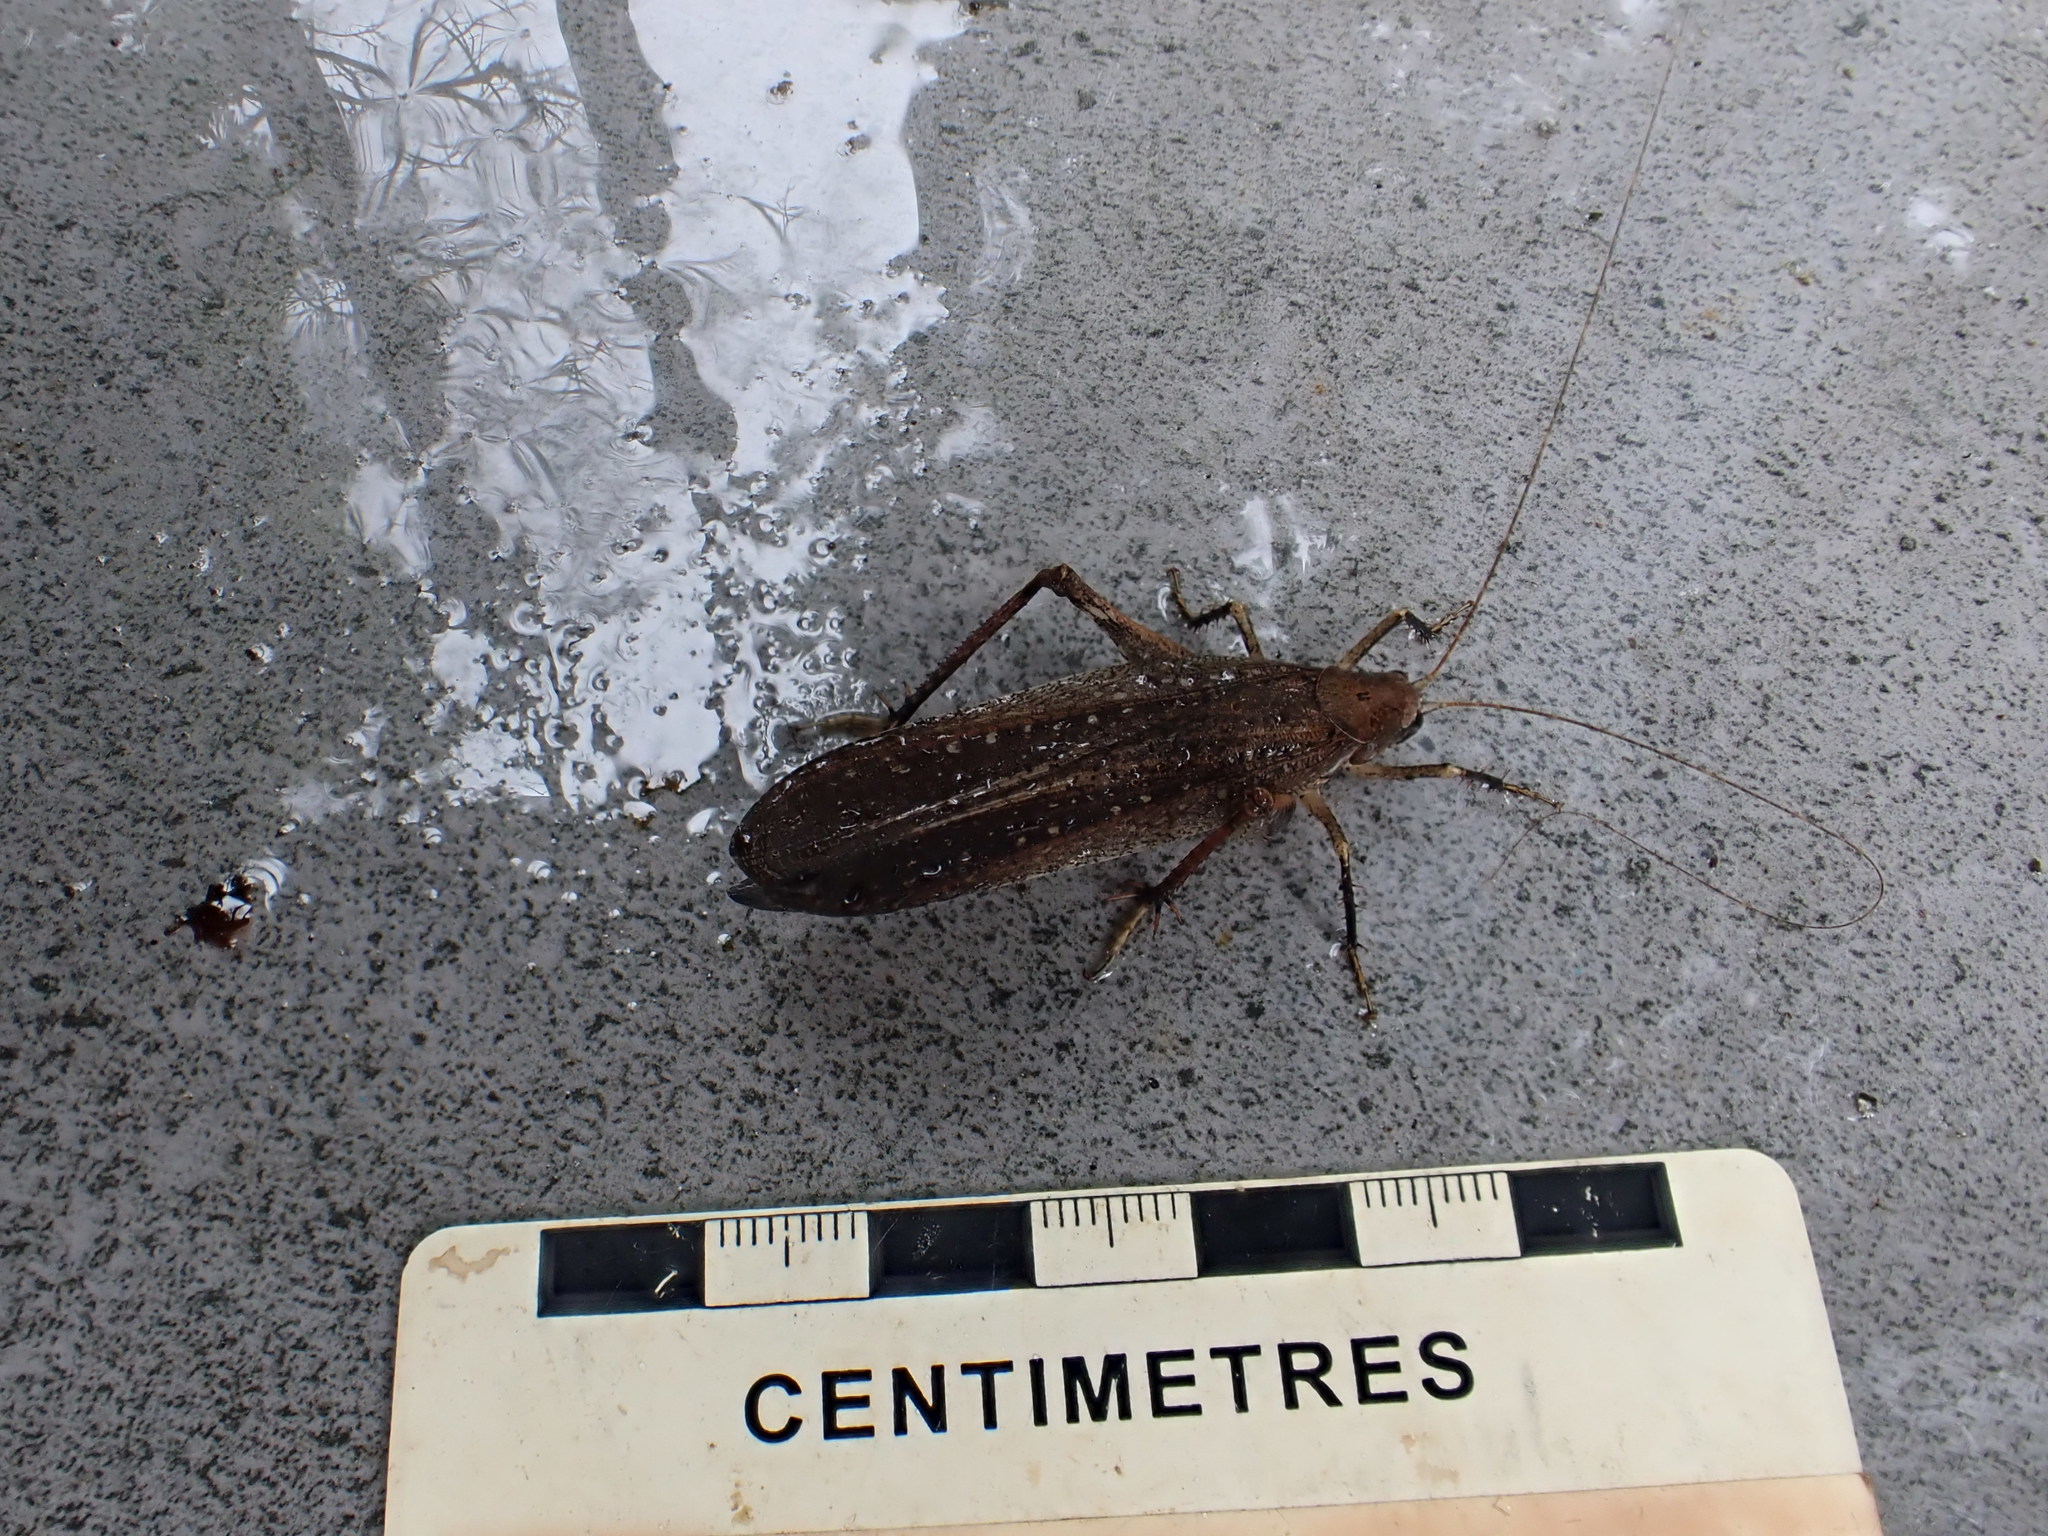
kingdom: Animalia
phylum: Arthropoda
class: Insecta
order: Orthoptera
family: Anostostomatidae
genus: Transaevum
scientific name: Transaevum laudatum
